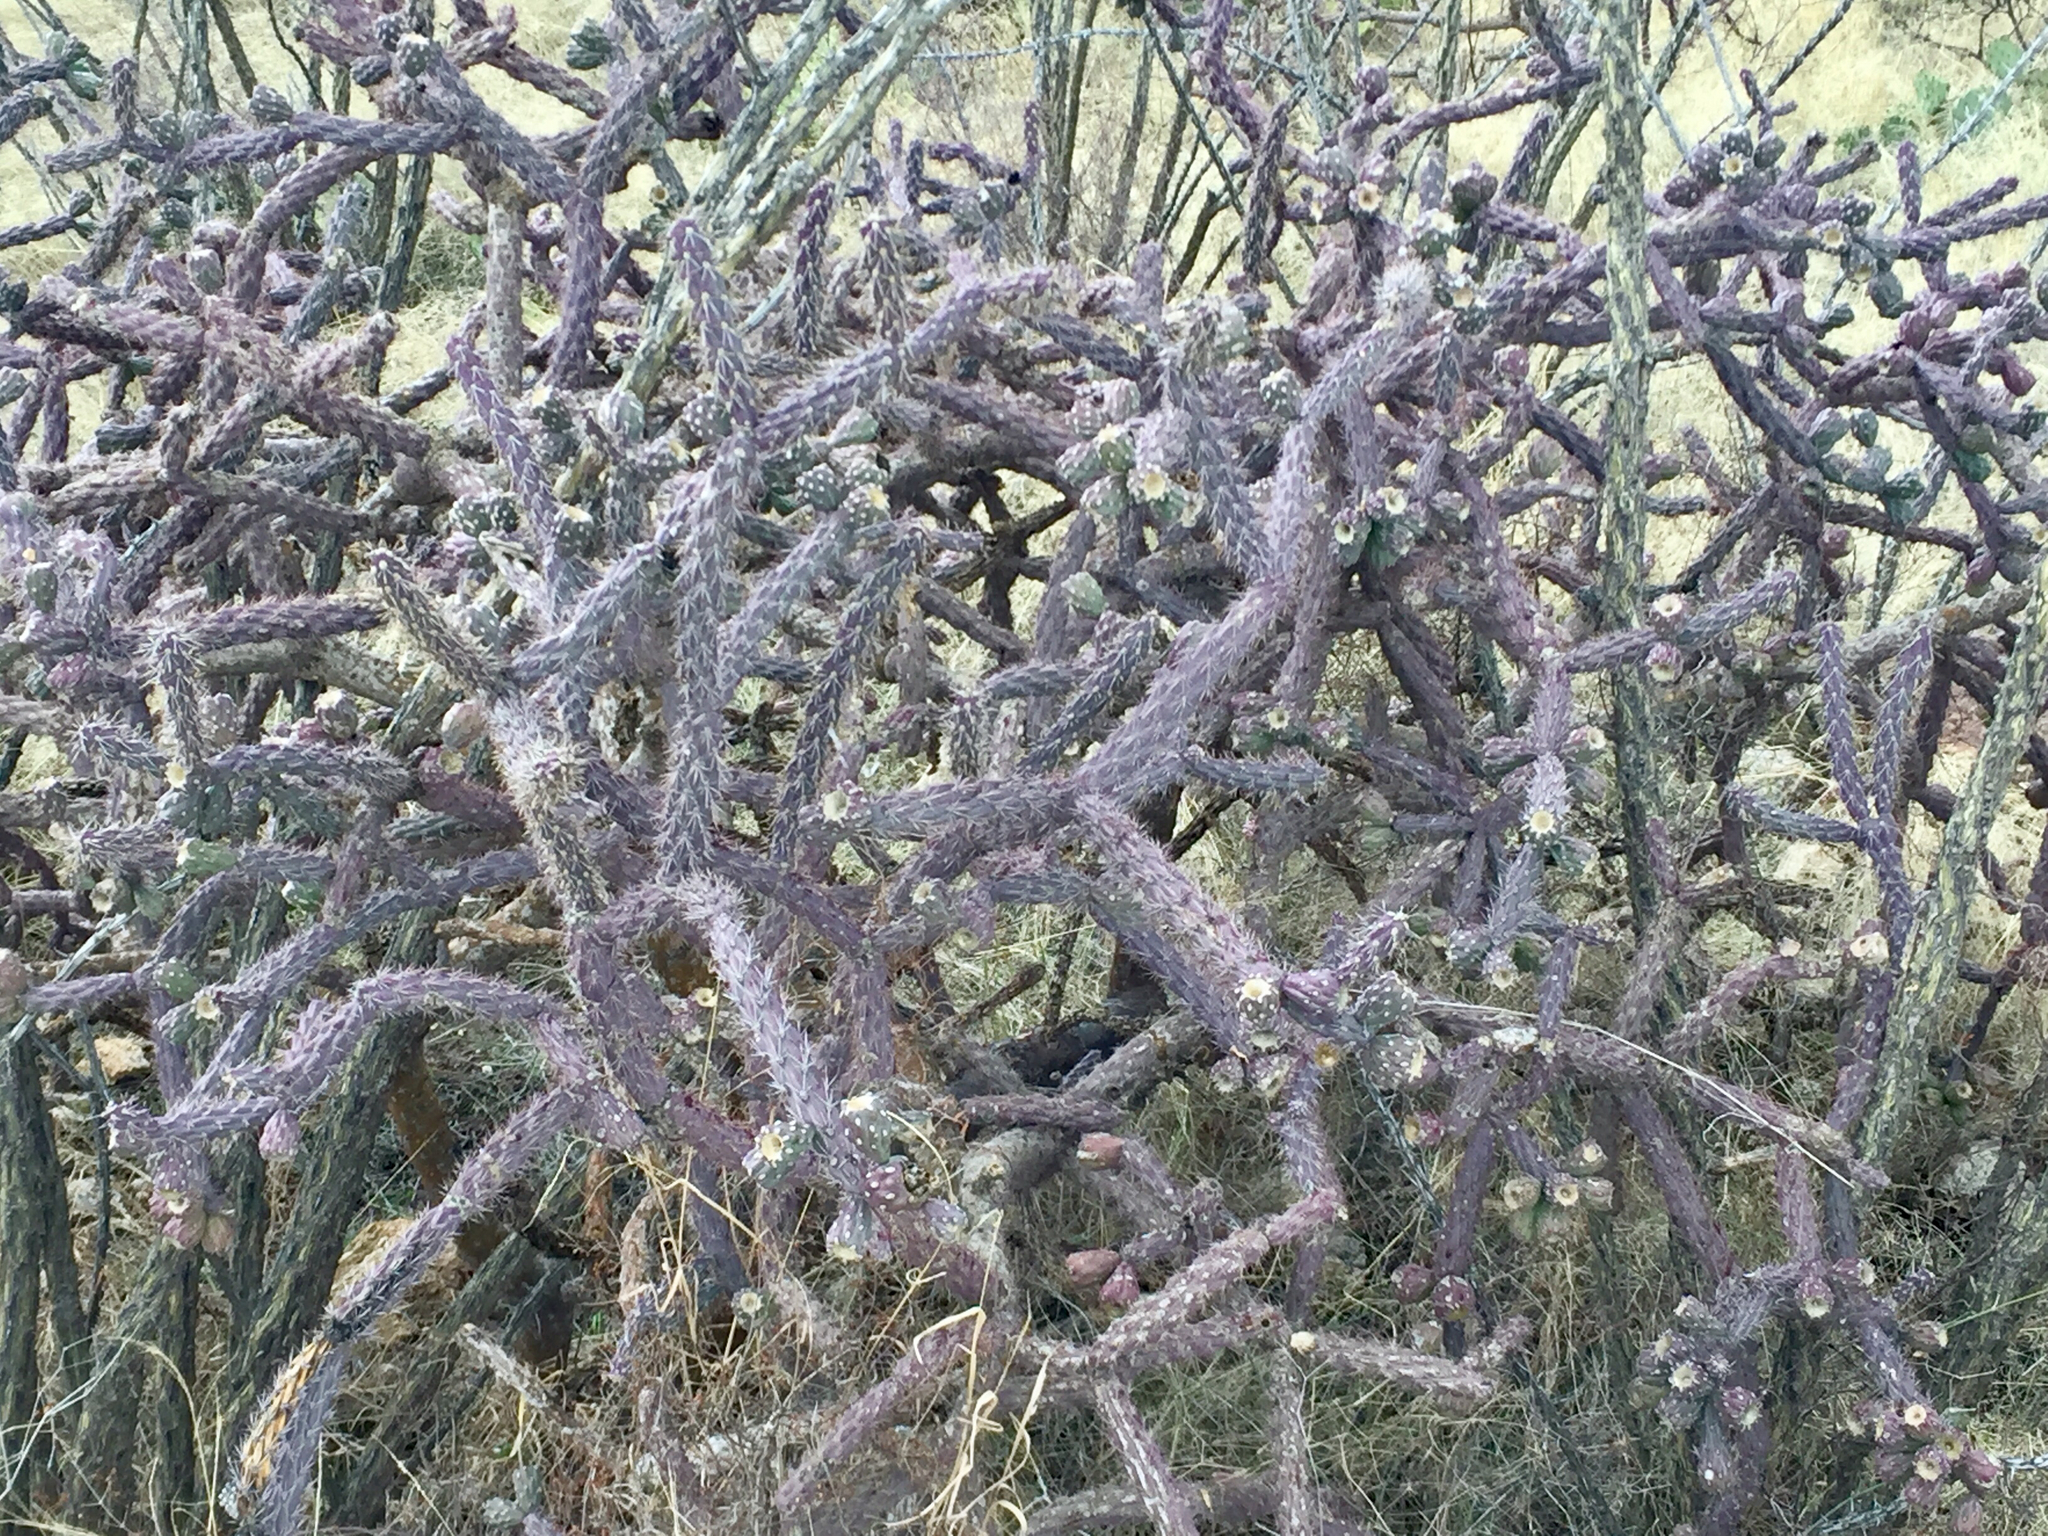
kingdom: Plantae
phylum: Tracheophyta
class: Magnoliopsida
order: Caryophyllales
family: Cactaceae
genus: Cylindropuntia
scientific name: Cylindropuntia thurberi
